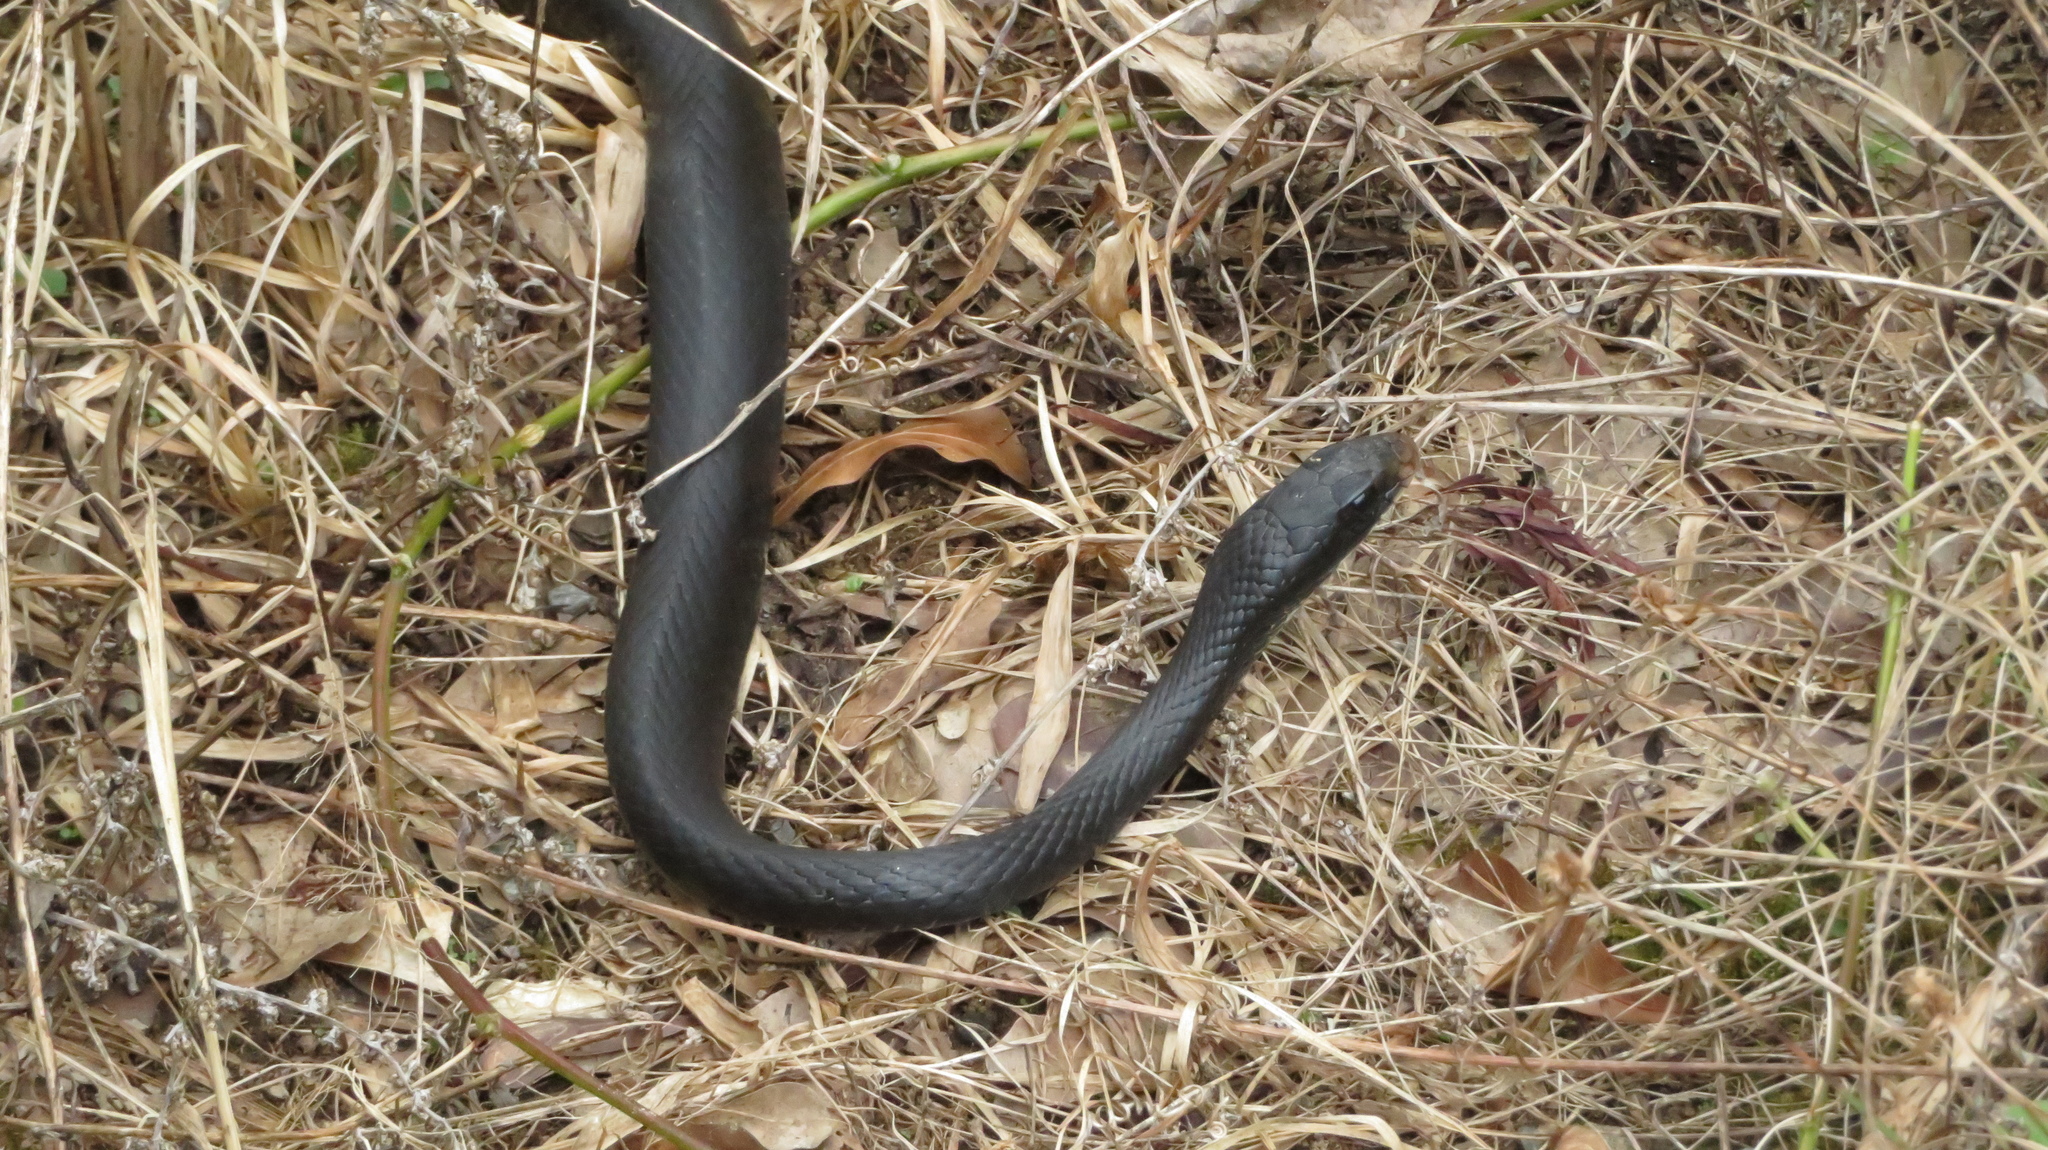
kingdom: Animalia
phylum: Chordata
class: Squamata
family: Colubridae
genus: Coluber
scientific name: Coluber constrictor
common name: Eastern racer
